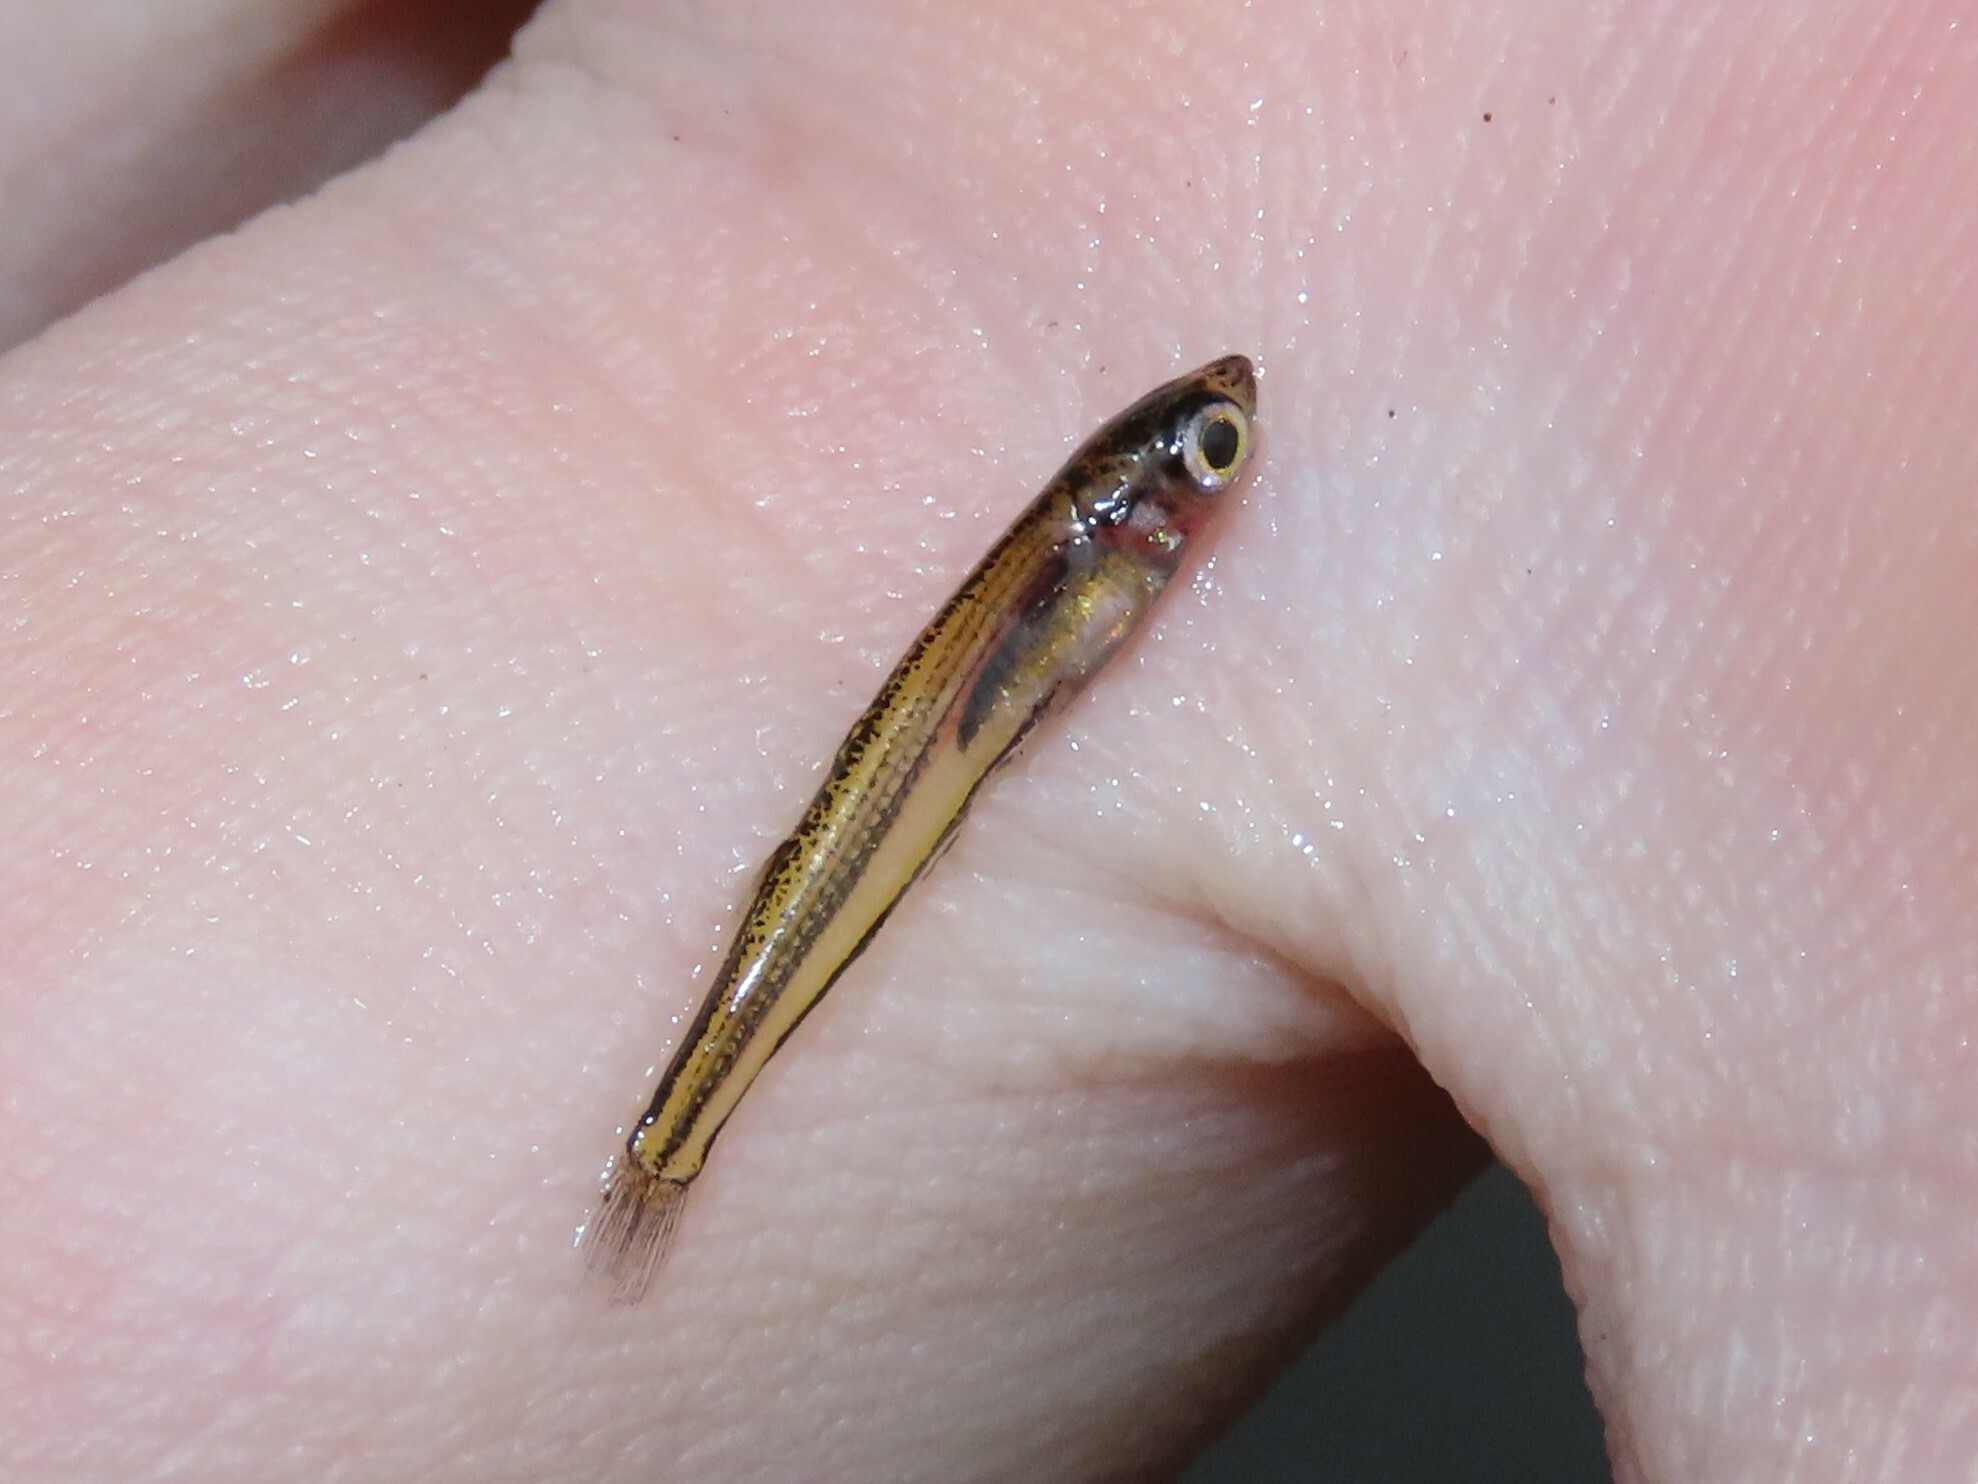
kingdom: Animalia
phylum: Chordata
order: Atheriniformes
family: Atherinopsidae
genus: Labidesthes
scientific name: Labidesthes vanhyningi
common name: Golden silverside
